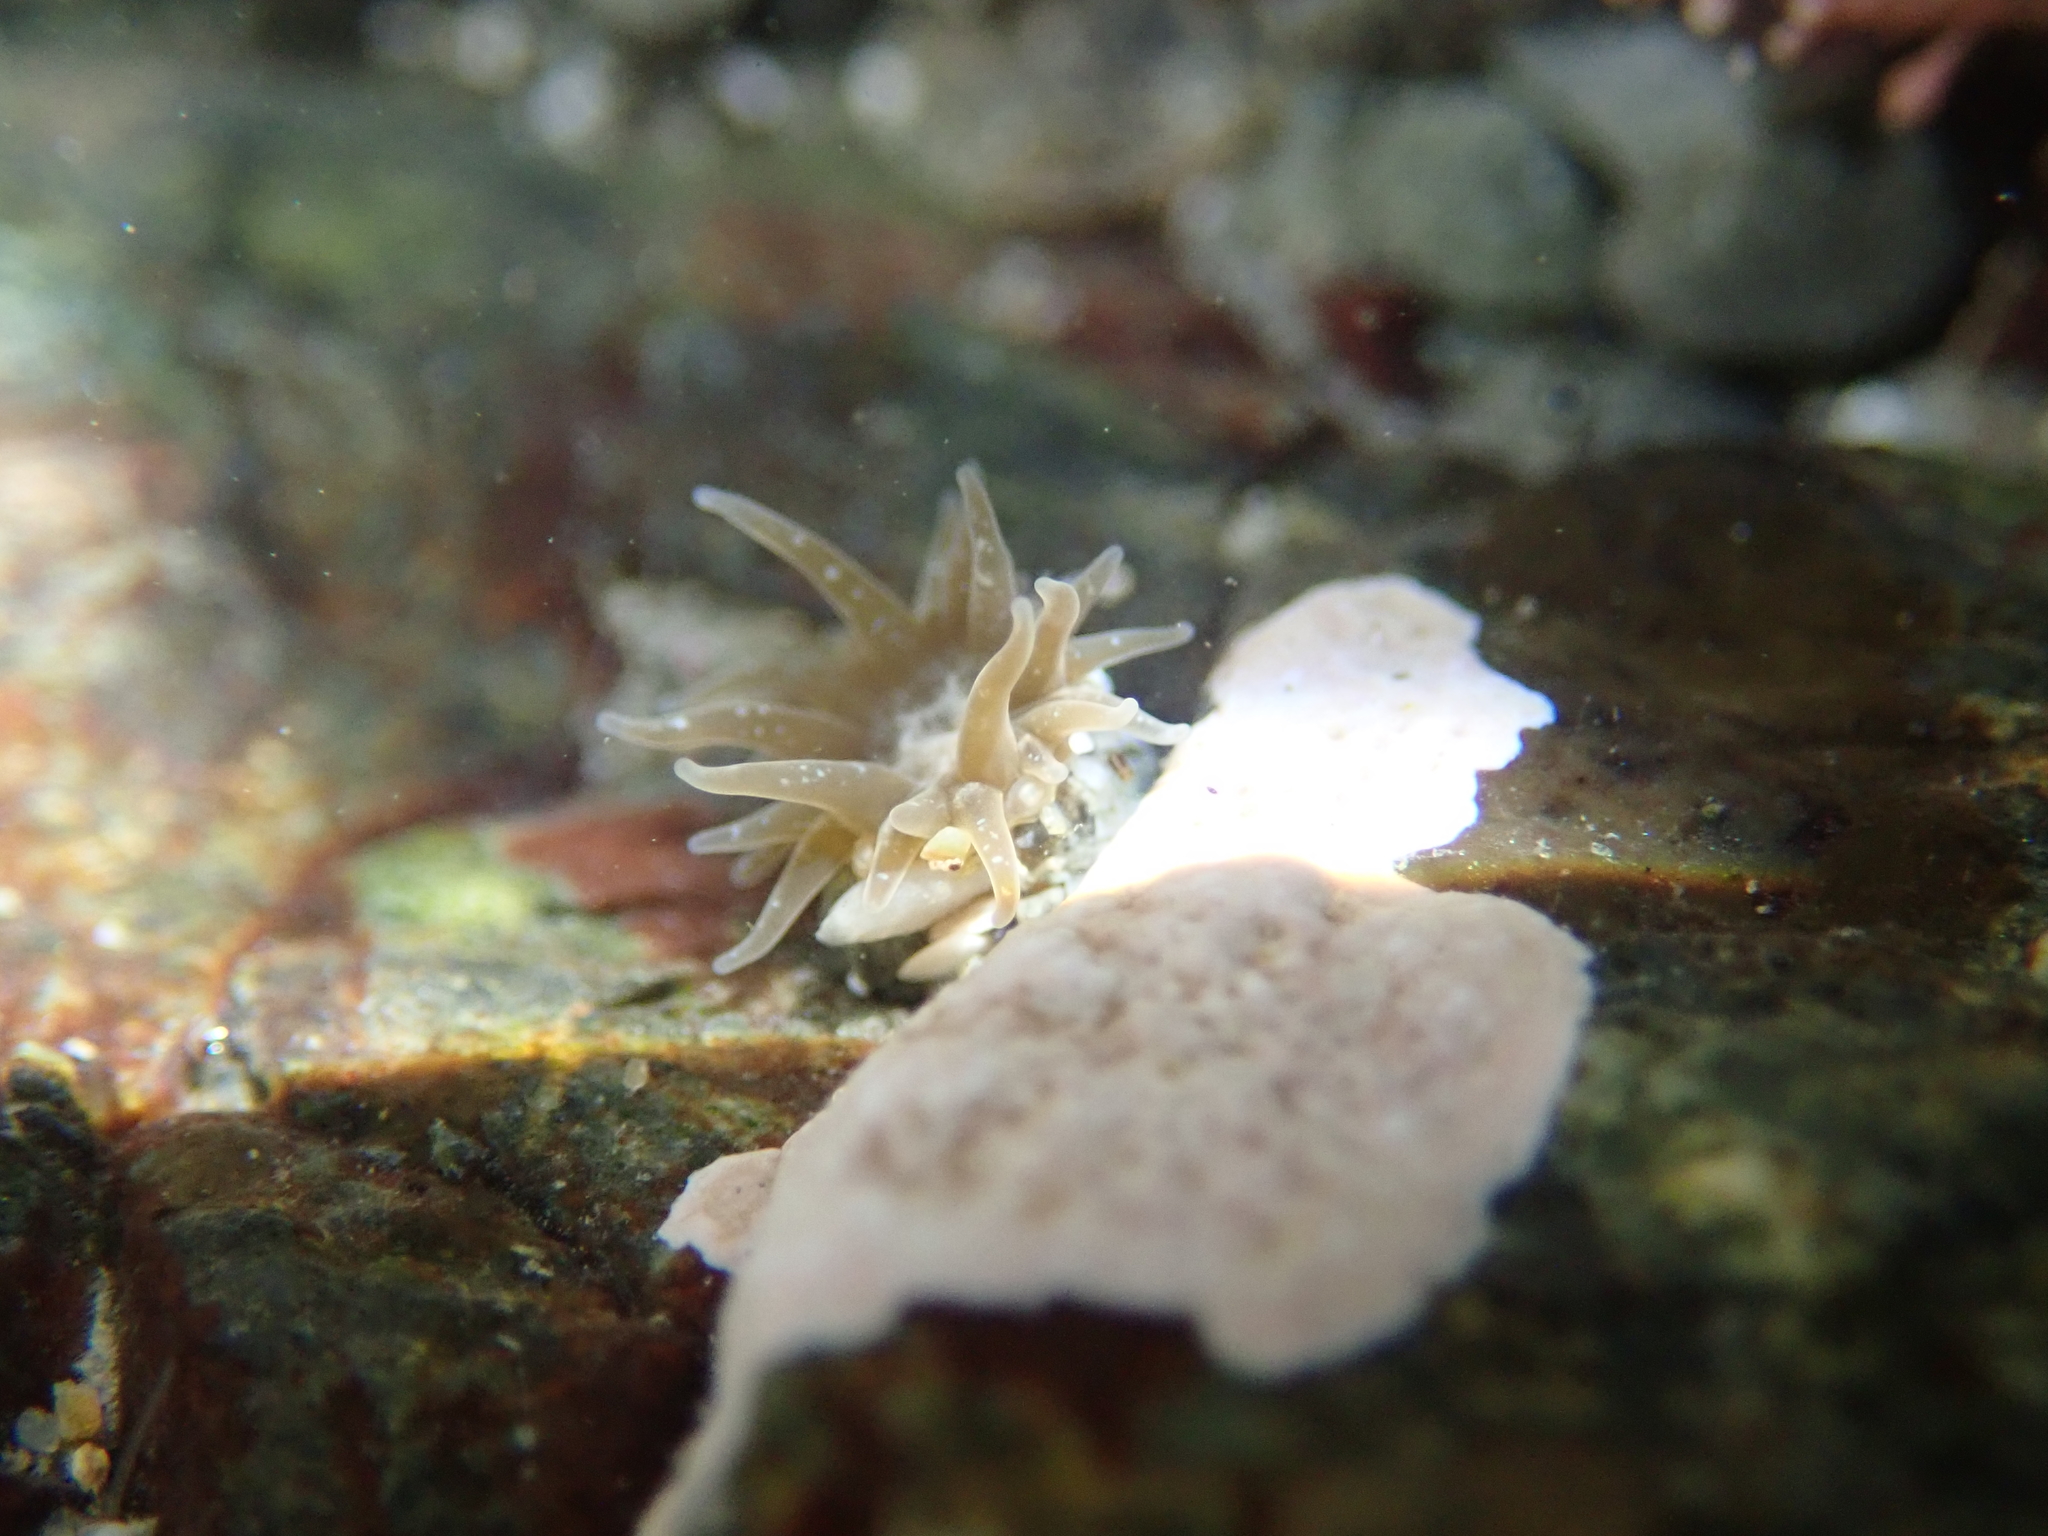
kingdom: Animalia
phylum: Cnidaria
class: Anthozoa
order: Actiniaria
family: Actiniidae
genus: Anthopleura
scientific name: Anthopleura hermaphroditica
